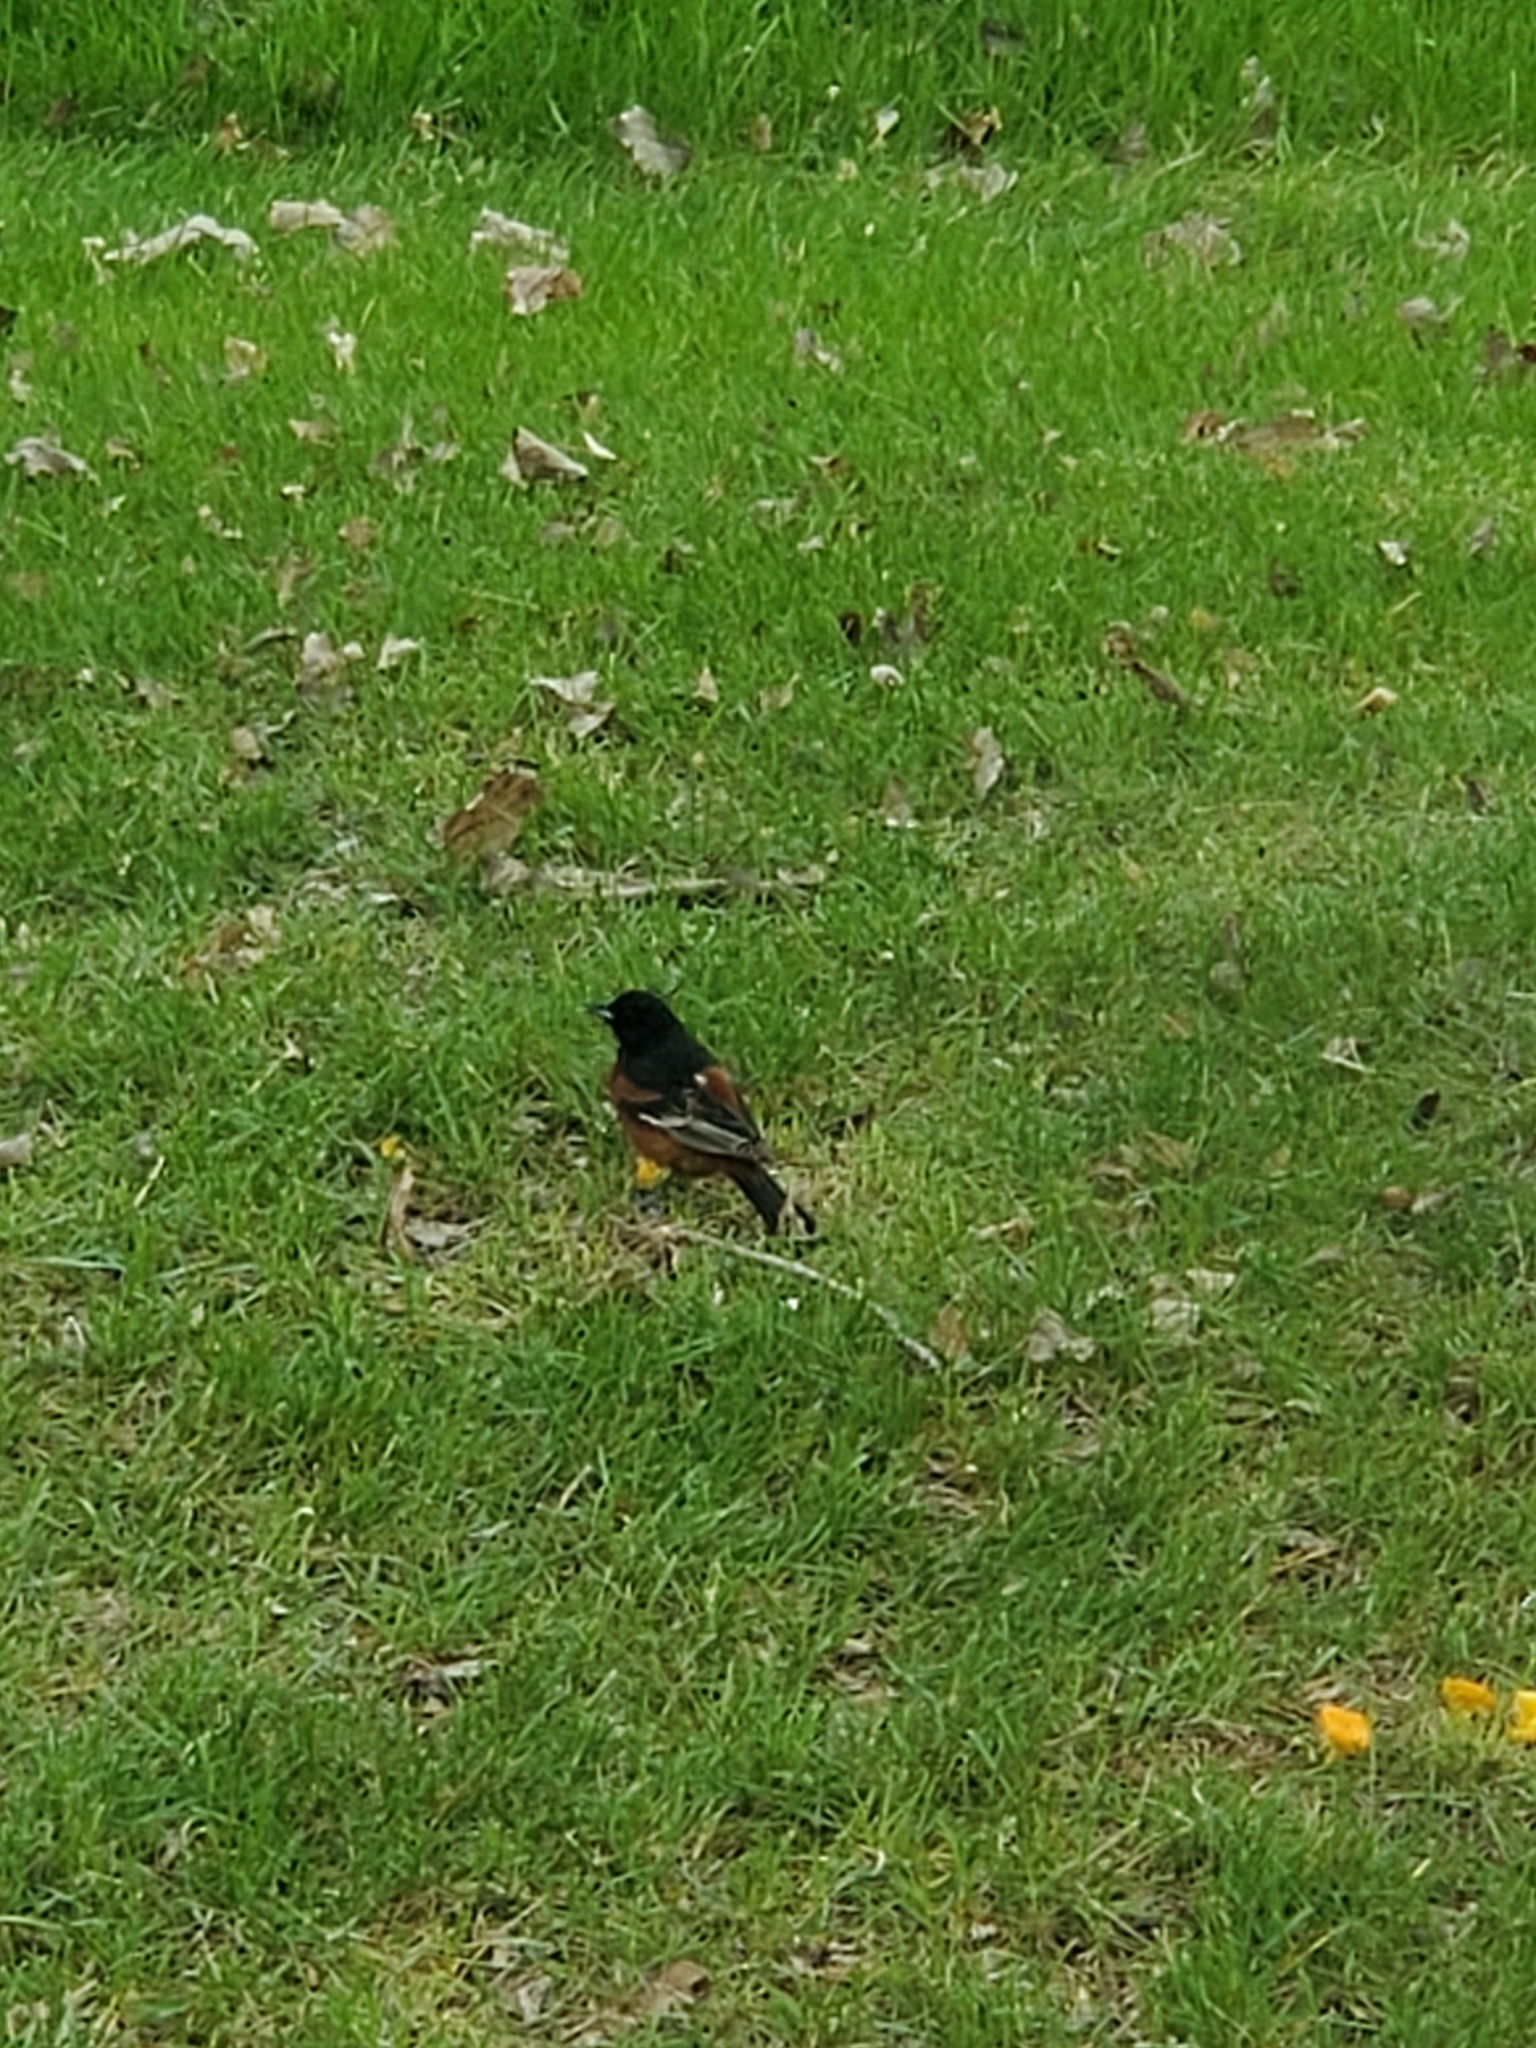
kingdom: Animalia
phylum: Chordata
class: Aves
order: Passeriformes
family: Icteridae
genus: Icterus
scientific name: Icterus spurius
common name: Orchard oriole
